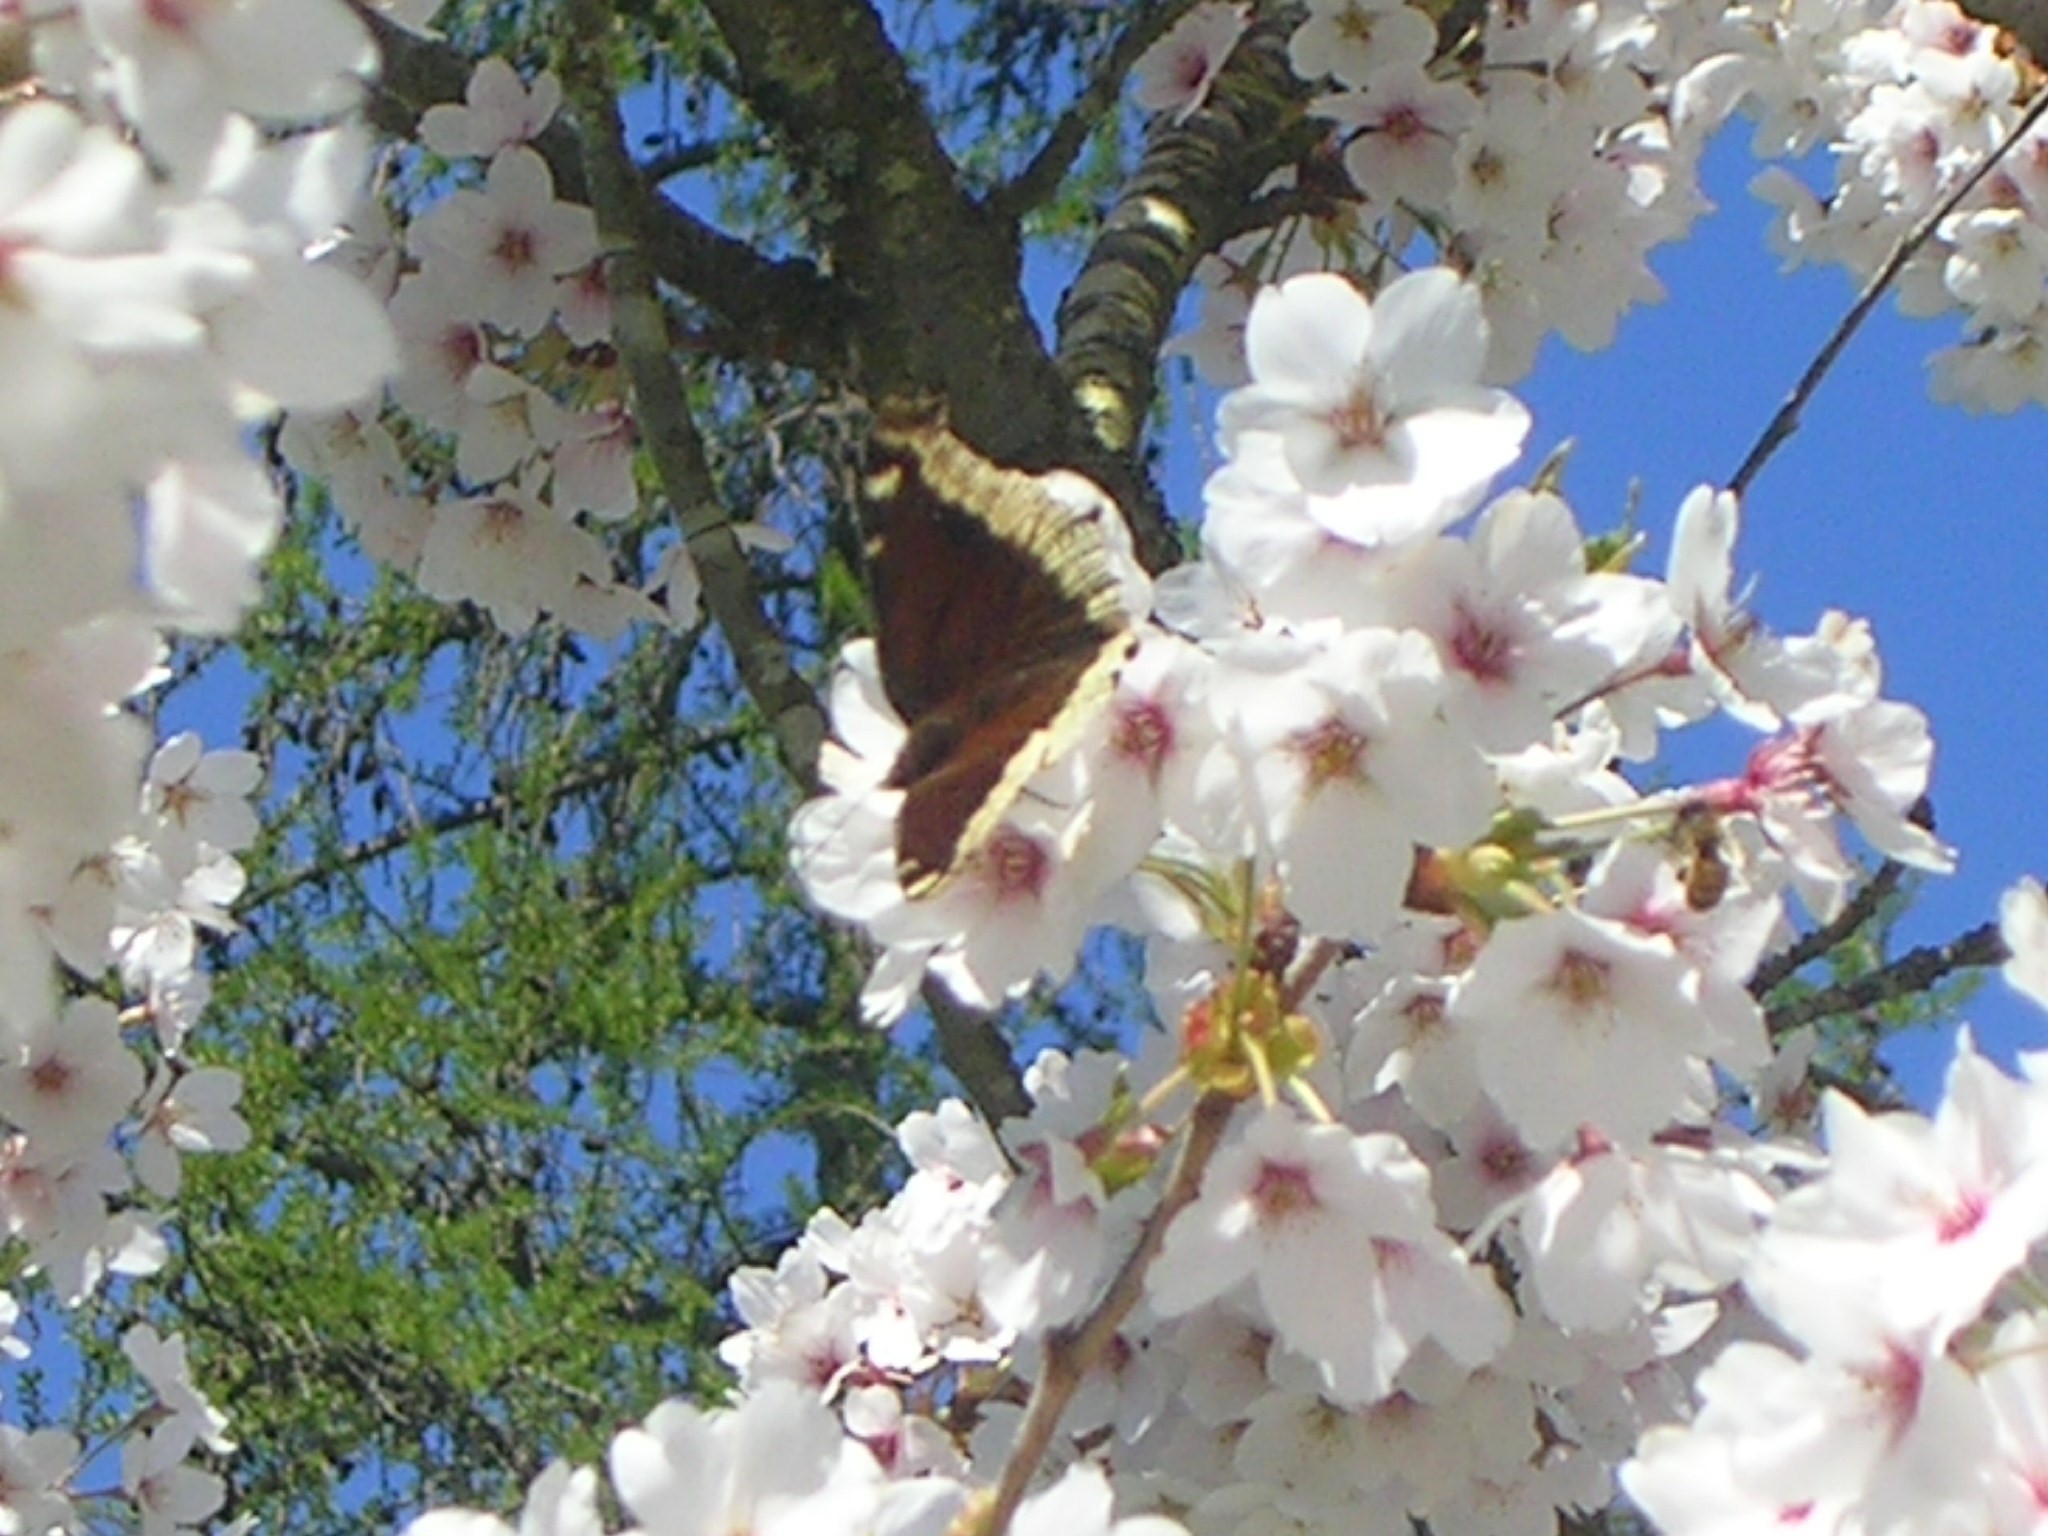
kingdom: Animalia
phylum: Arthropoda
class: Insecta
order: Lepidoptera
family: Nymphalidae
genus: Nymphalis
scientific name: Nymphalis antiopa
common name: Camberwell beauty
